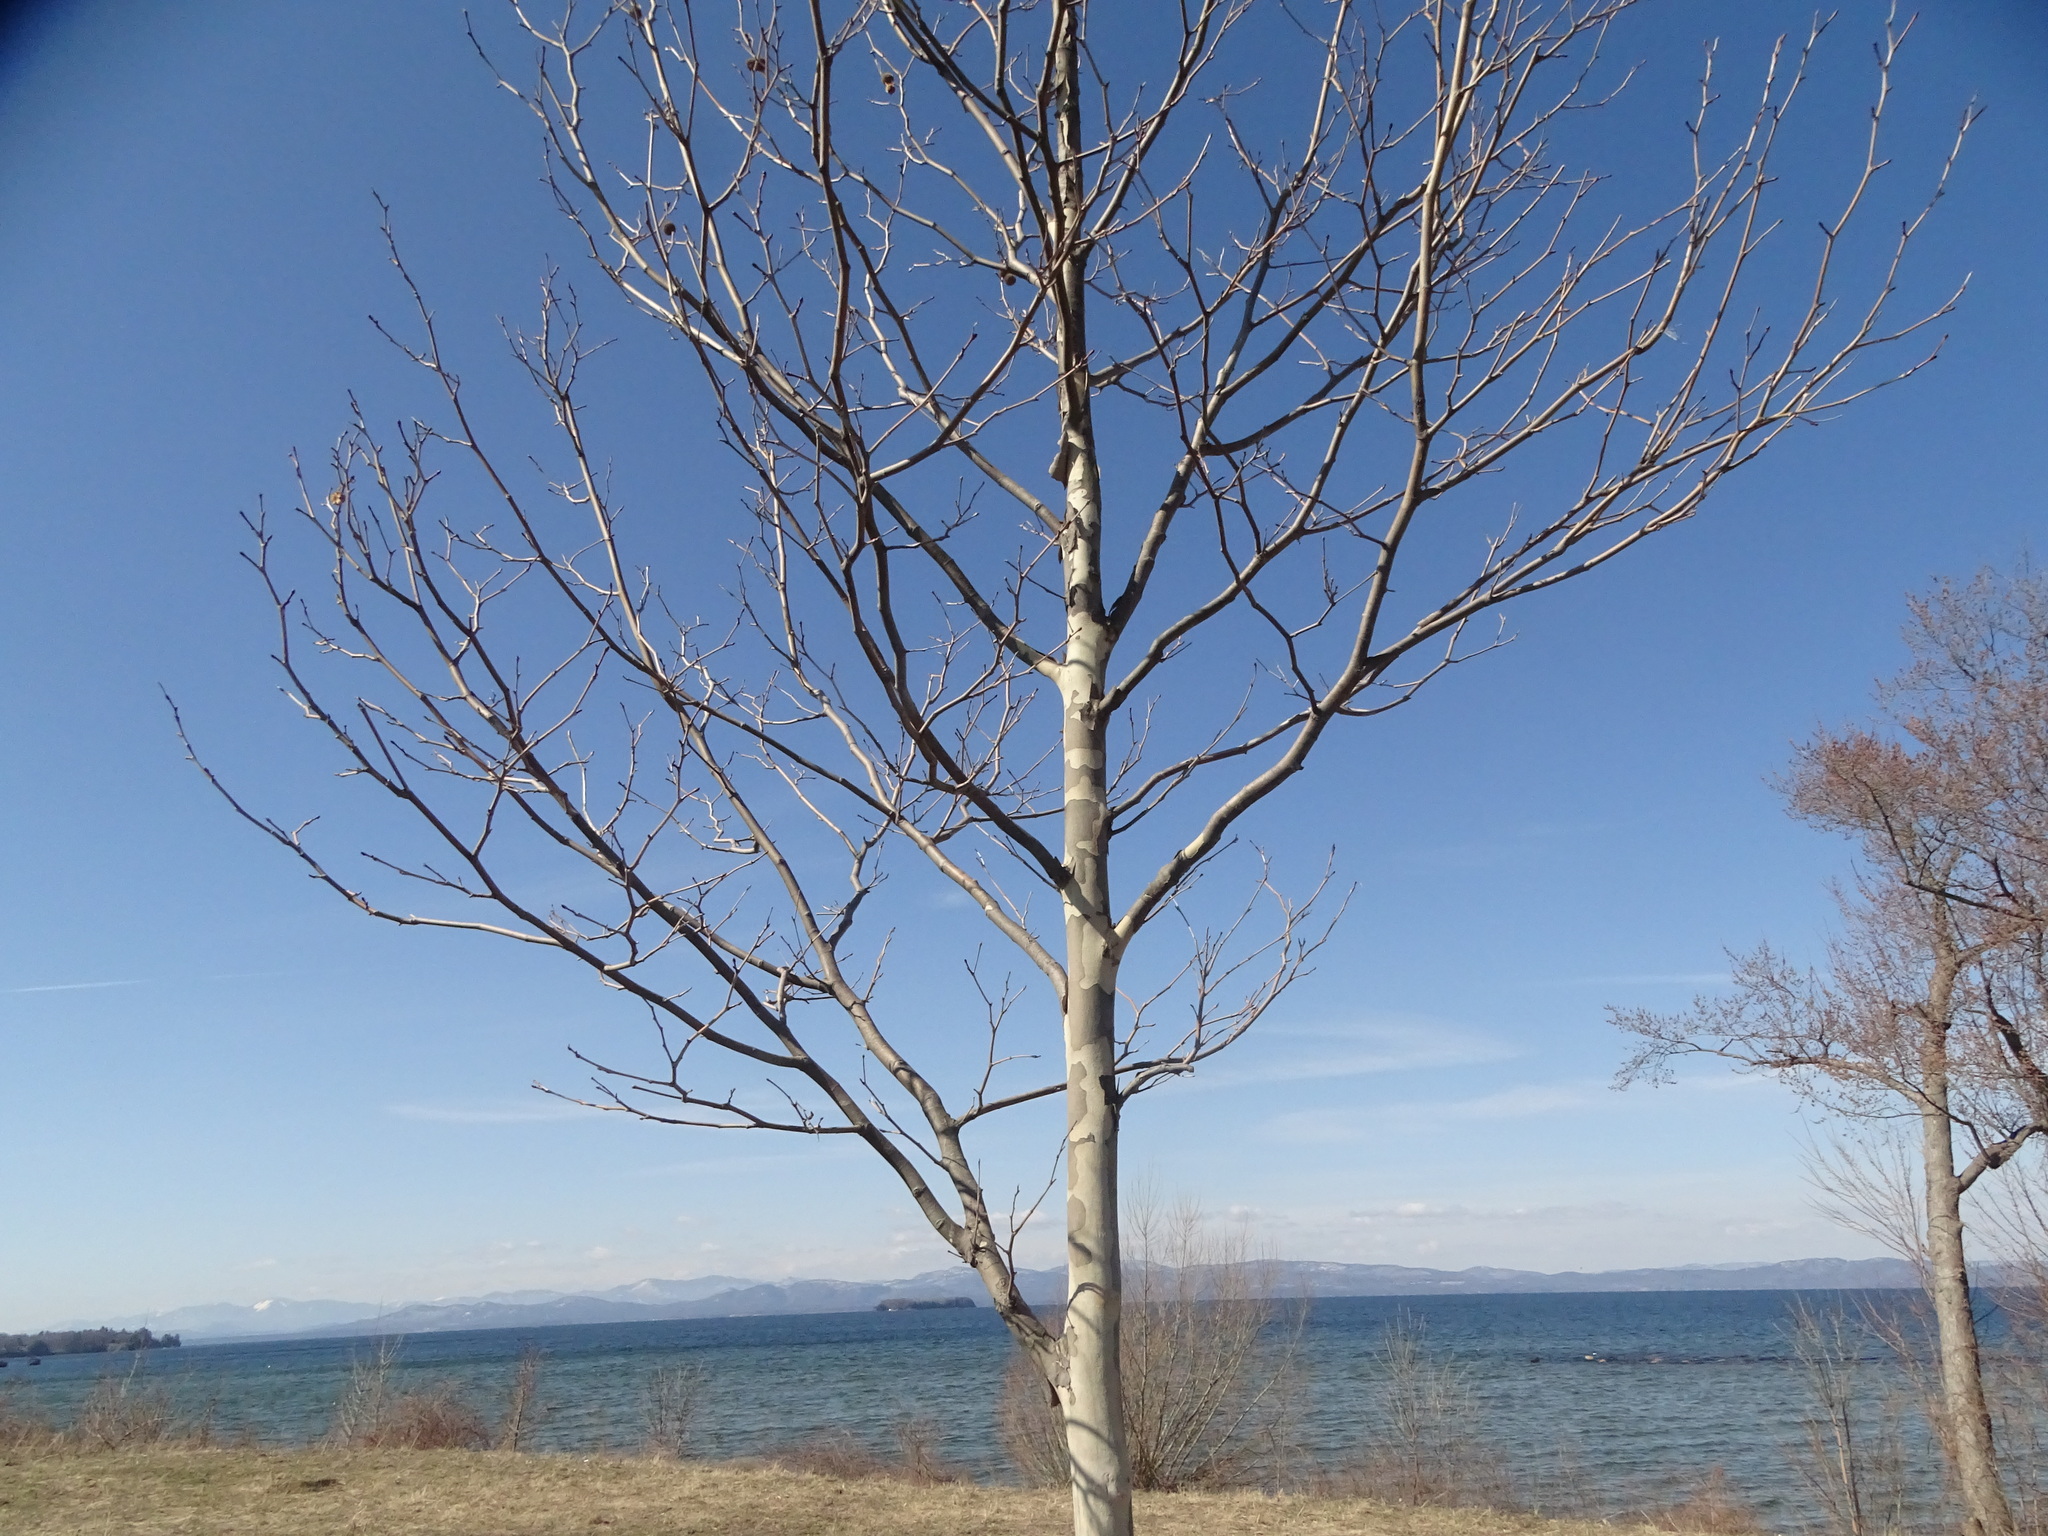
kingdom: Plantae
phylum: Tracheophyta
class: Magnoliopsida
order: Proteales
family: Platanaceae
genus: Platanus
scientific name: Platanus occidentalis
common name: American sycamore
